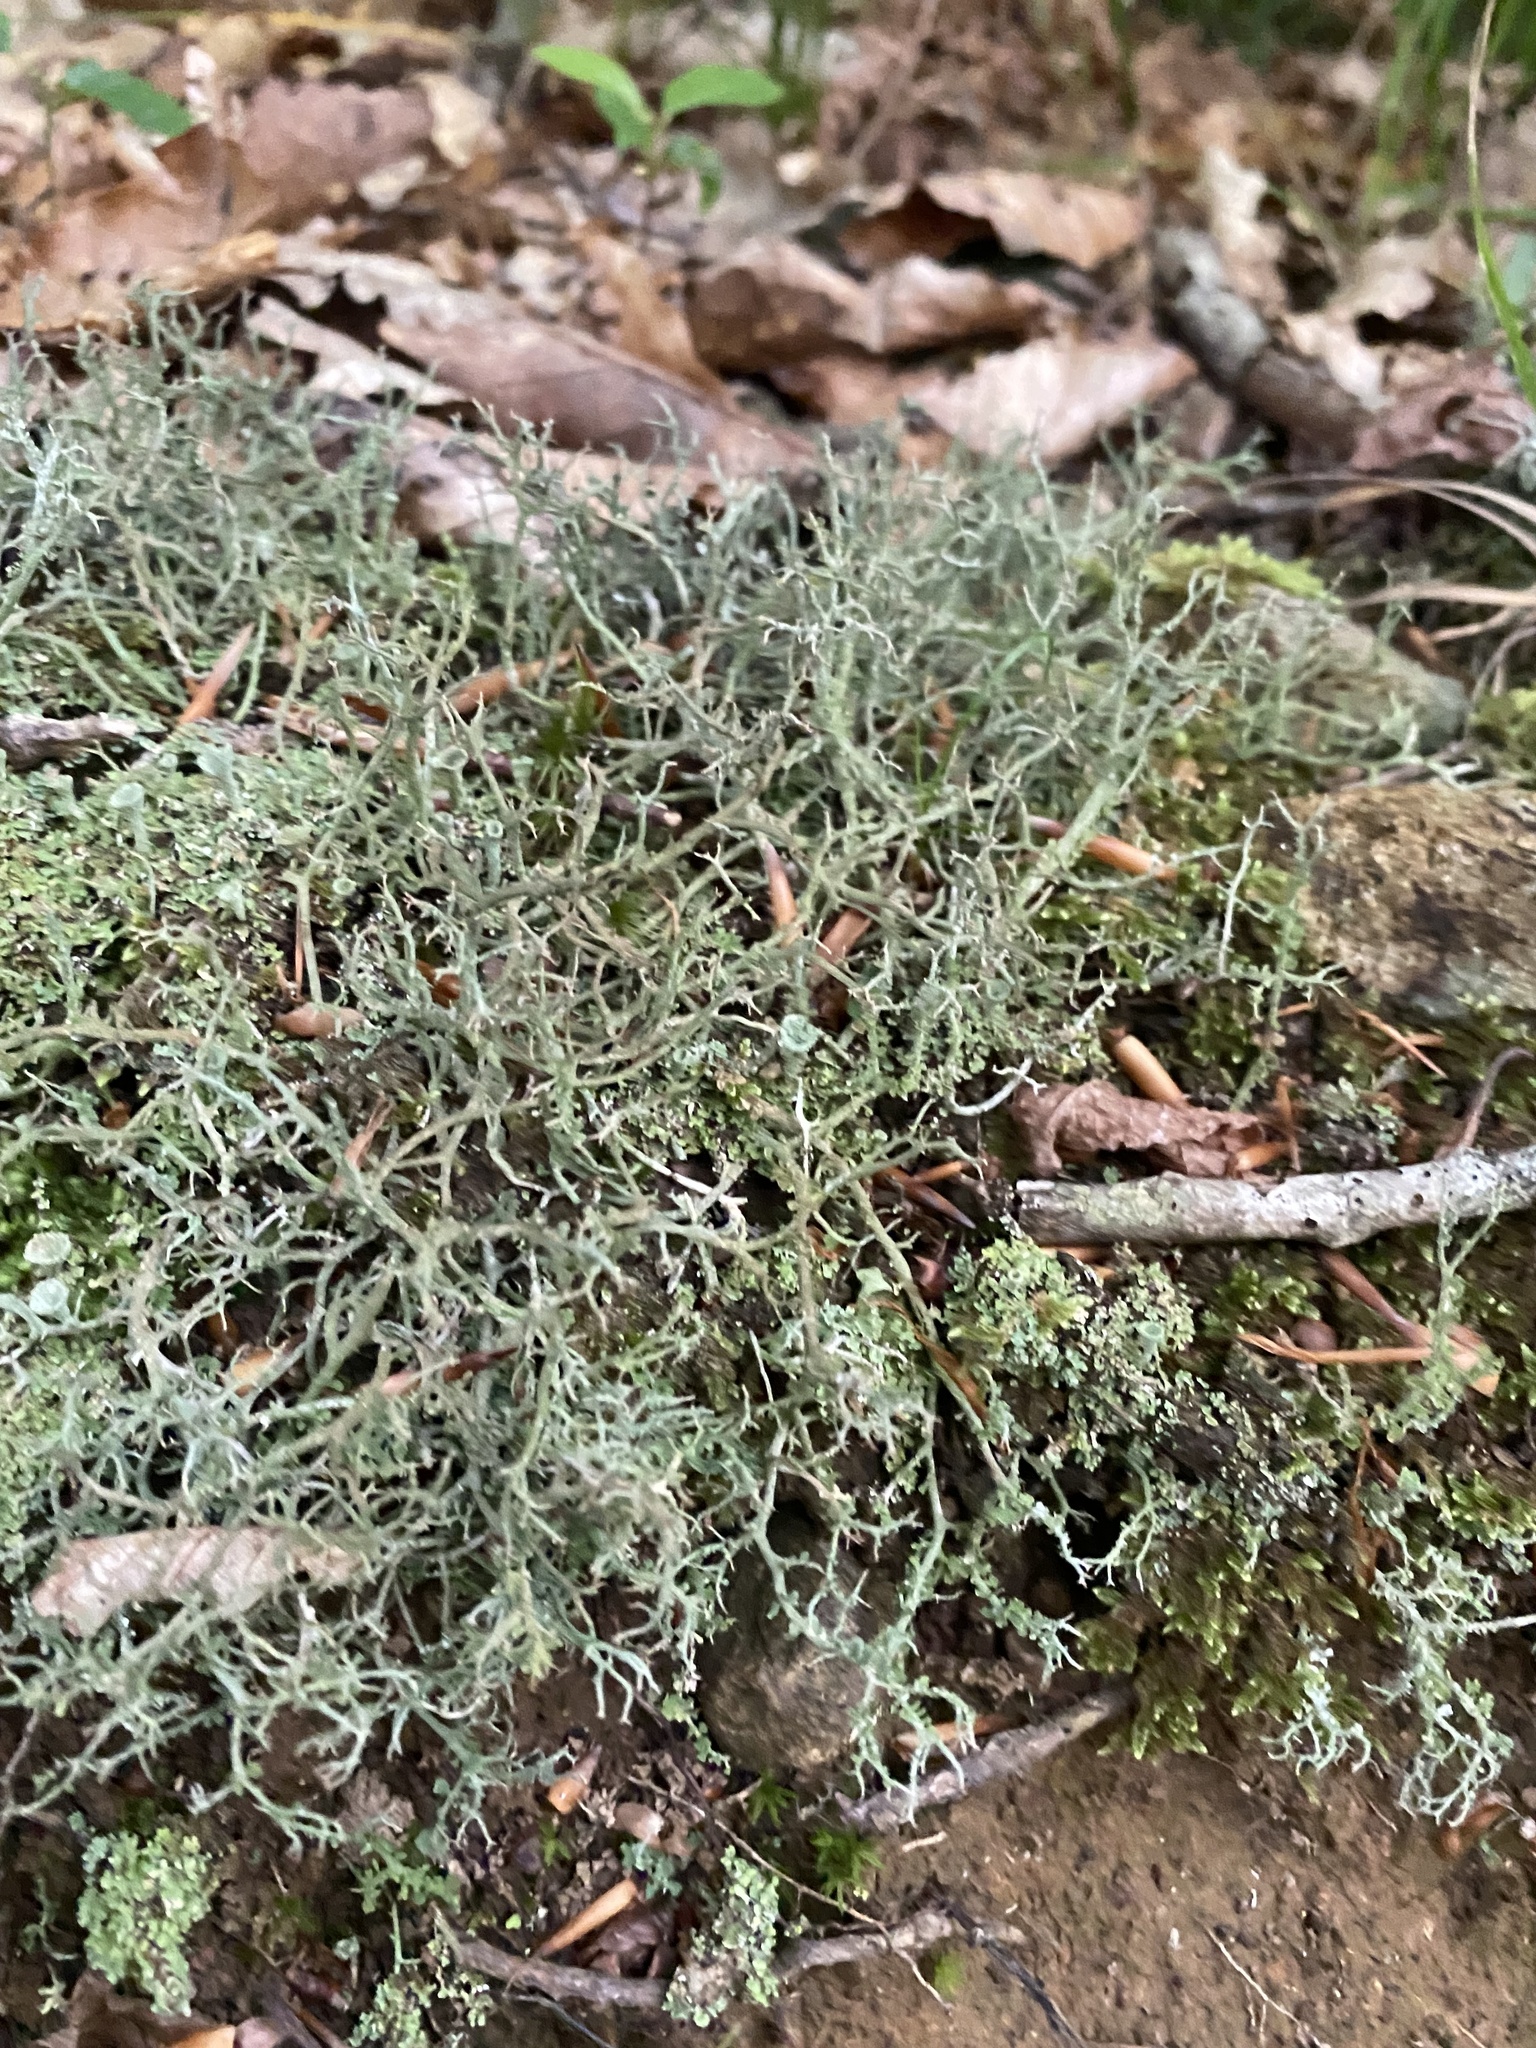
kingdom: Fungi
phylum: Ascomycota
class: Lecanoromycetes
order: Lecanorales
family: Cladoniaceae
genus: Cladonia
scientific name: Cladonia furcata
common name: Many-forked cladonia
